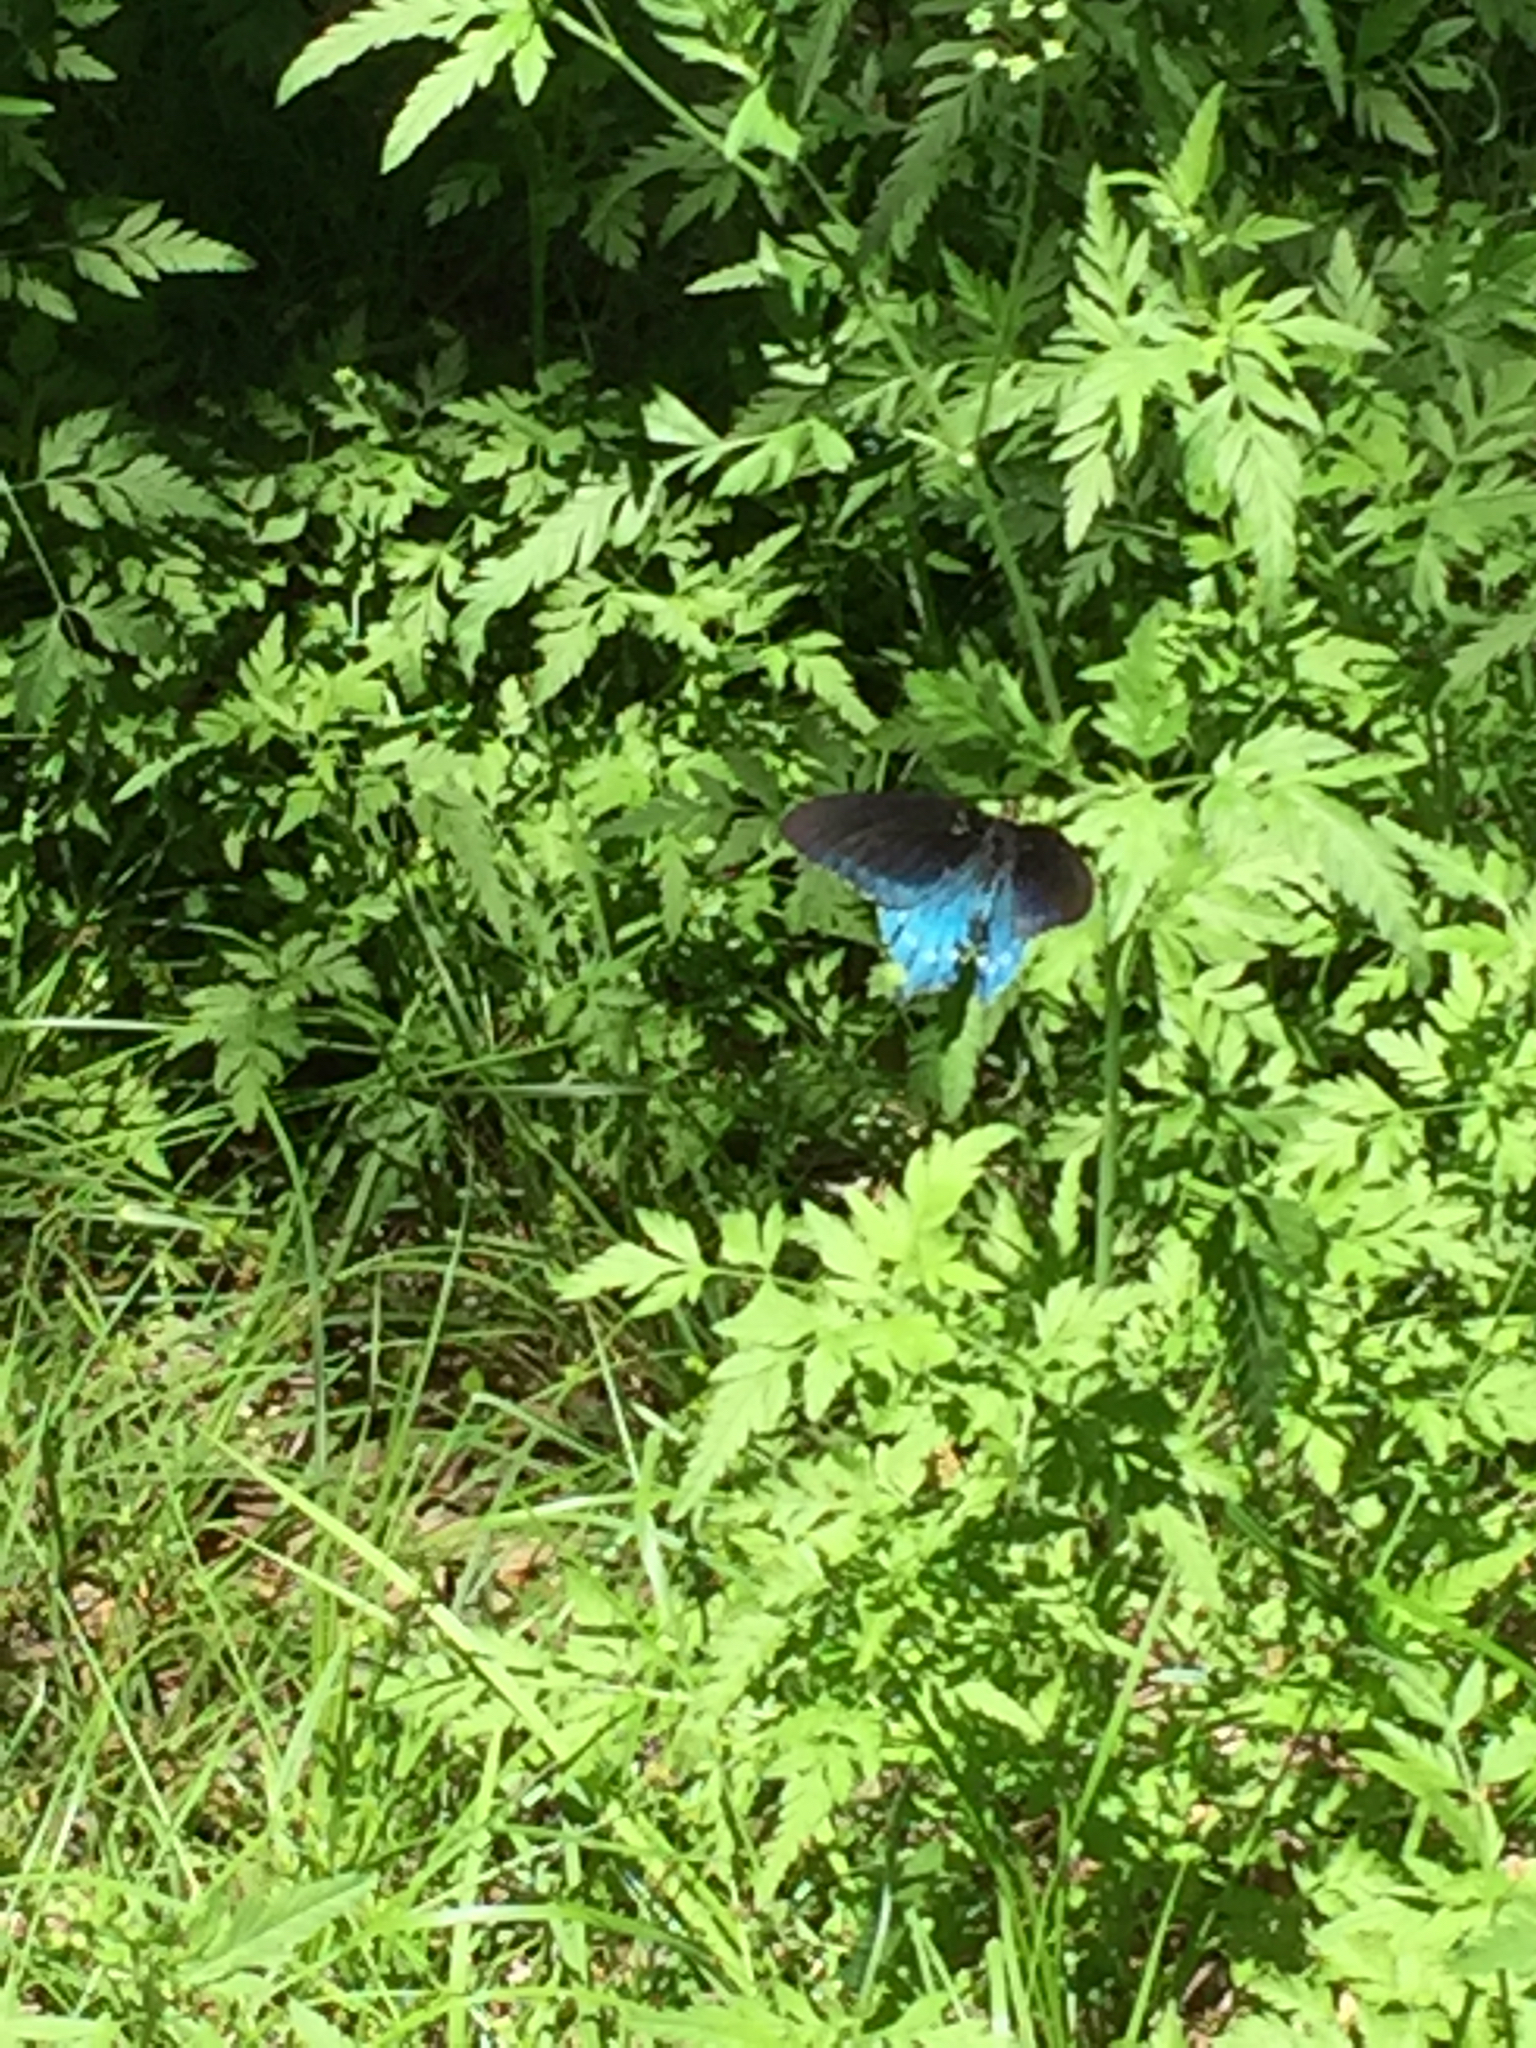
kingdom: Animalia
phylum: Arthropoda
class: Insecta
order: Lepidoptera
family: Papilionidae
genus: Battus
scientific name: Battus philenor
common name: Pipevine swallowtail
